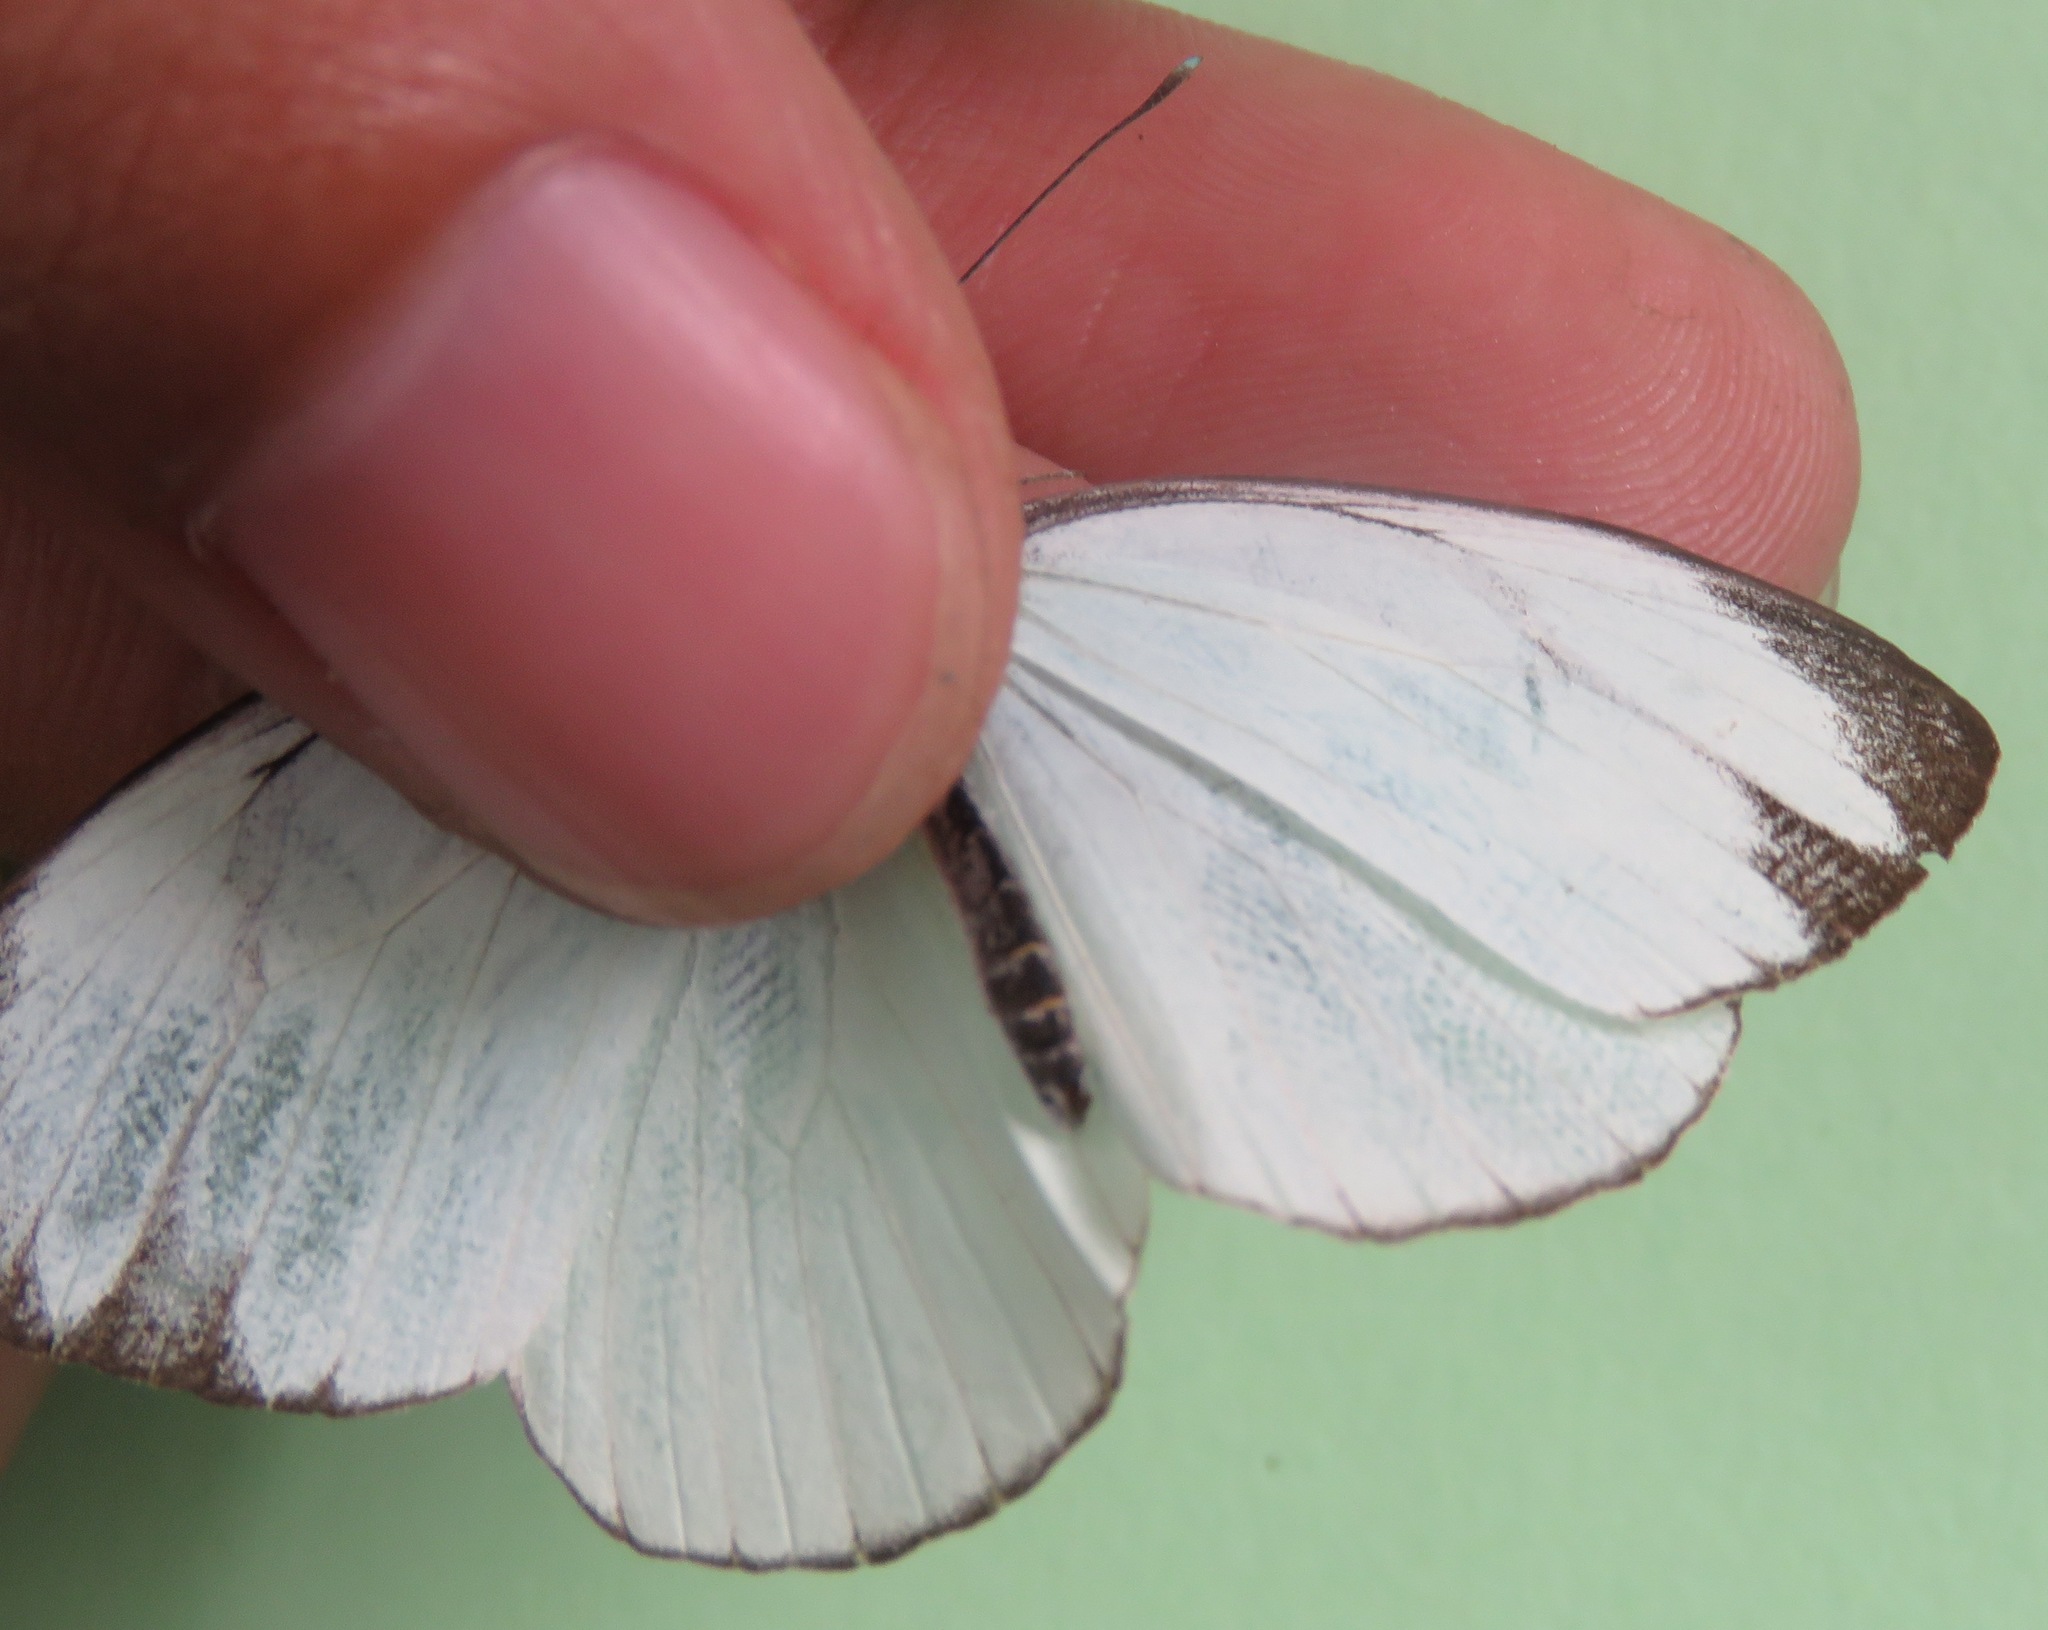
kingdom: Animalia
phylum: Arthropoda
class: Insecta
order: Lepidoptera
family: Pieridae
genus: Itaballia
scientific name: Itaballia demophile
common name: Cross-barred white
